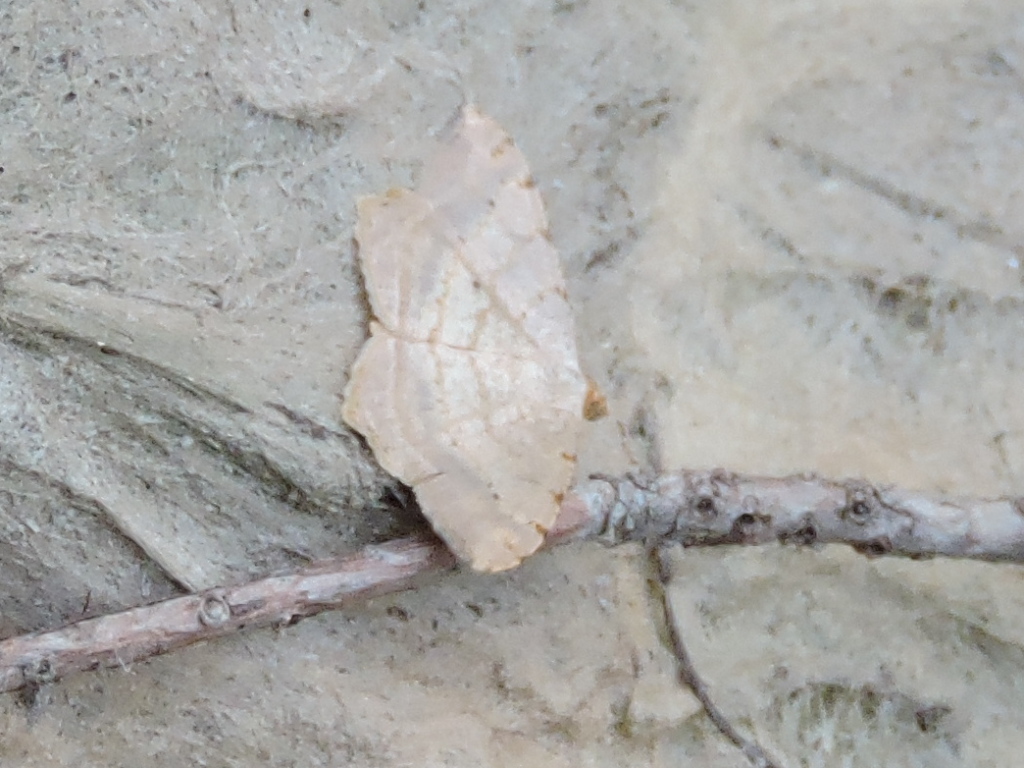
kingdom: Animalia
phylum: Arthropoda
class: Insecta
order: Lepidoptera
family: Geometridae
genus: Macaria
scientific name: Macaria abydata
